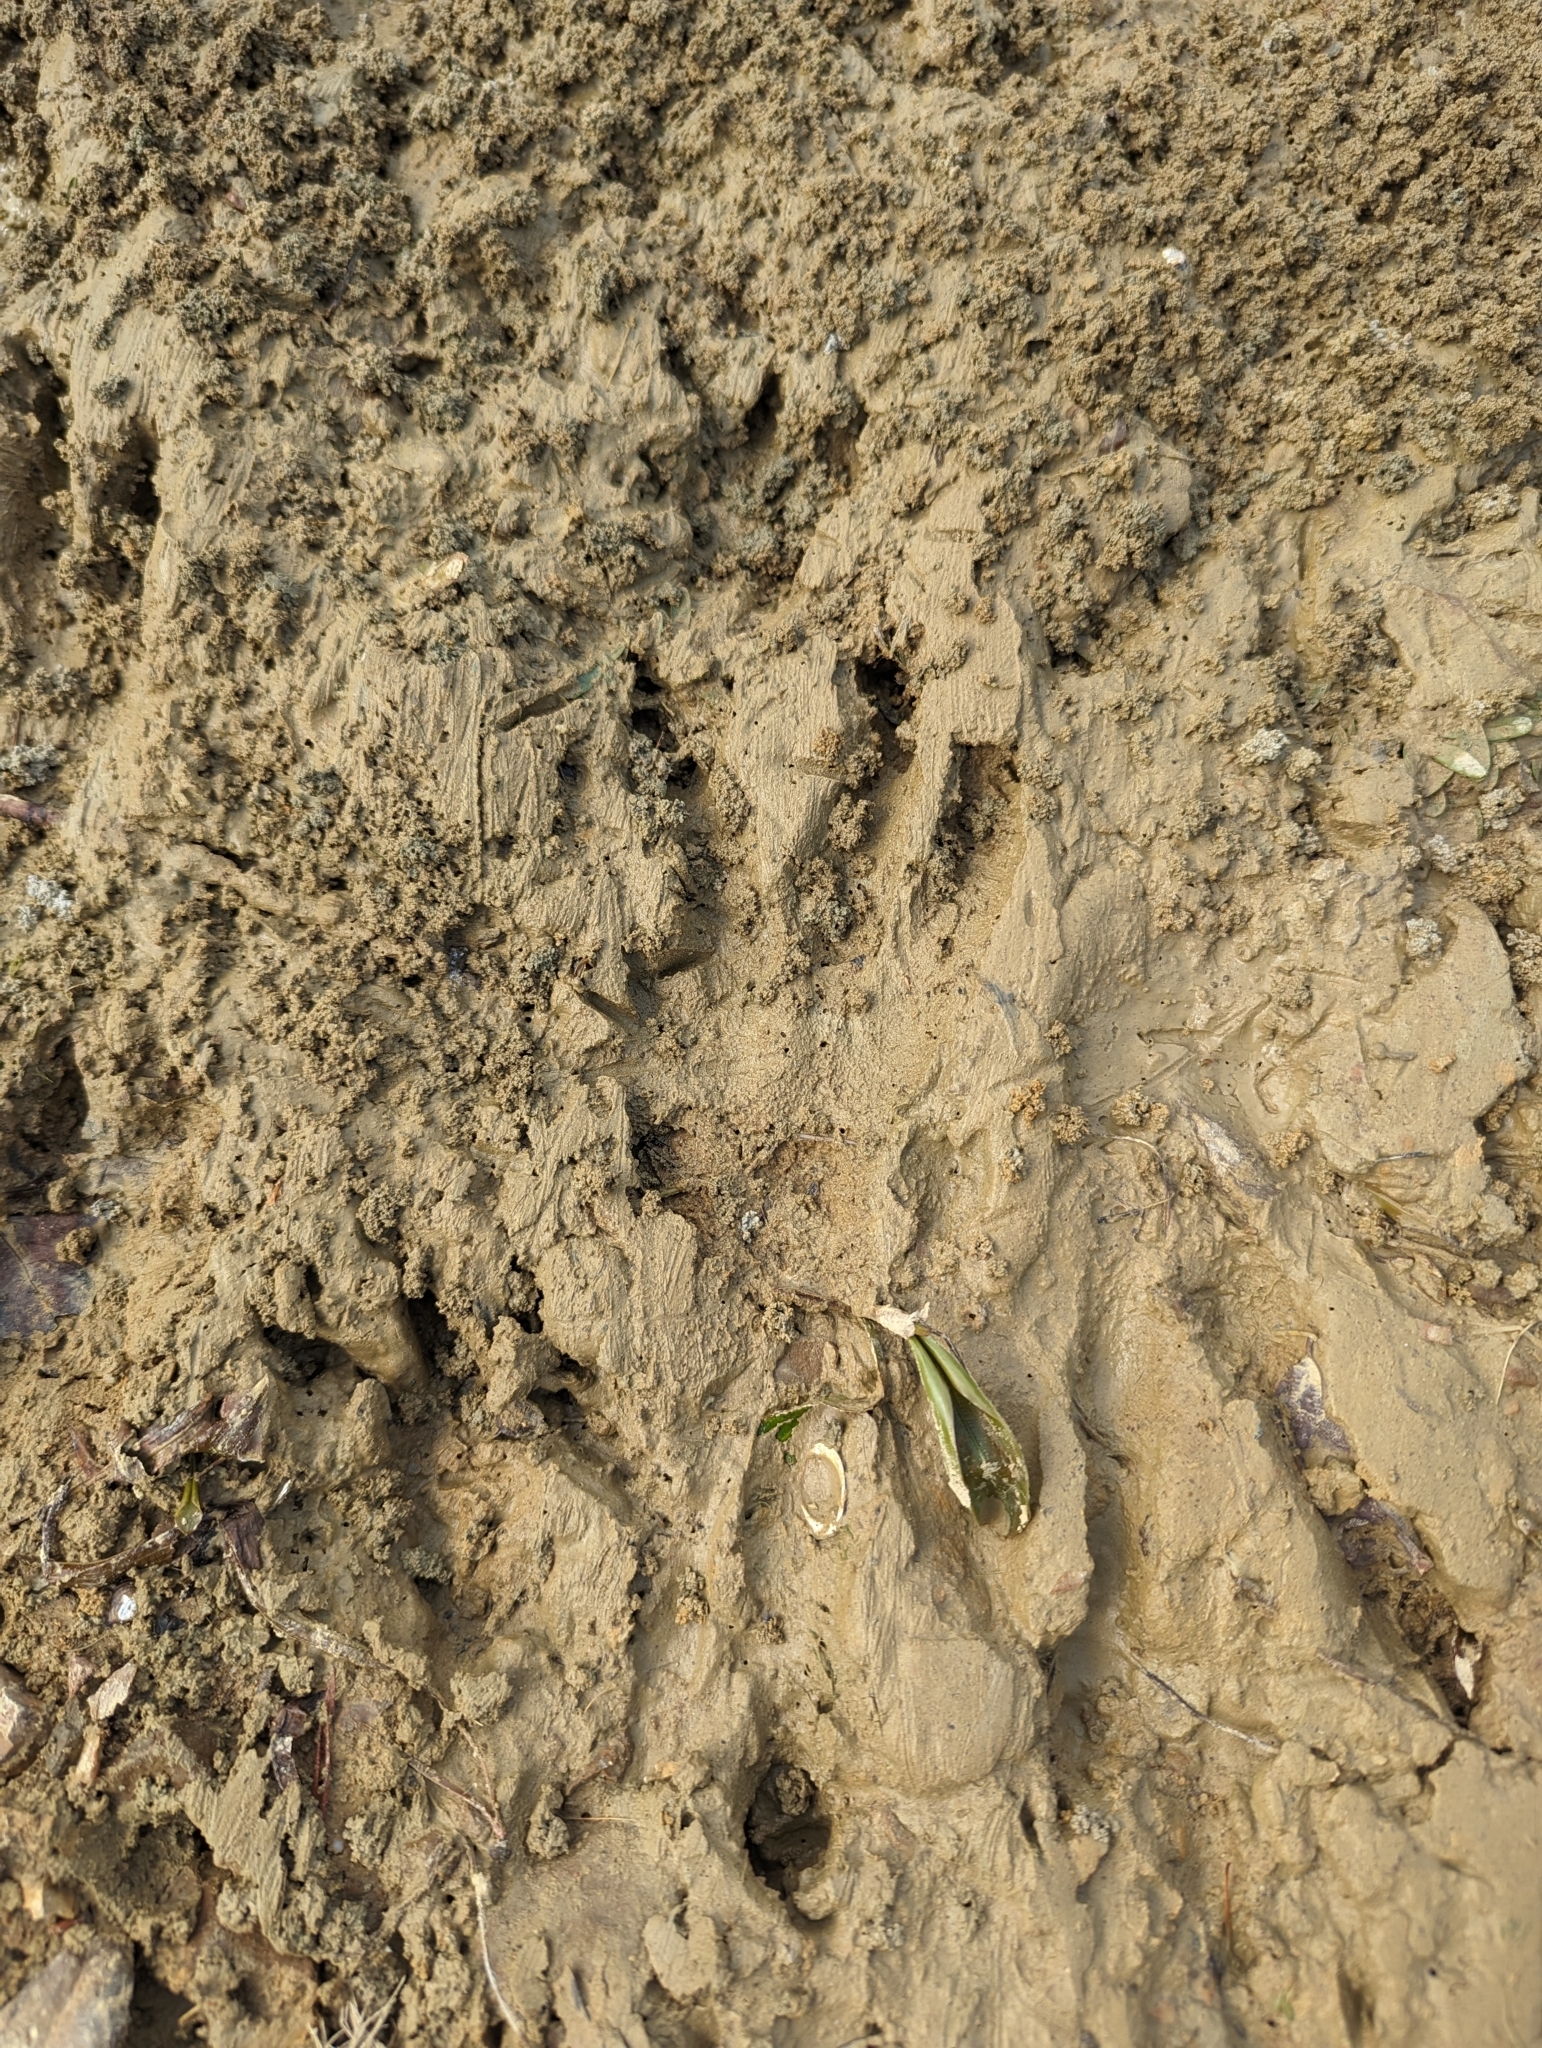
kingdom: Animalia
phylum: Chordata
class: Mammalia
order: Rodentia
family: Castoridae
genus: Castor
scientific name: Castor canadensis
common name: American beaver
